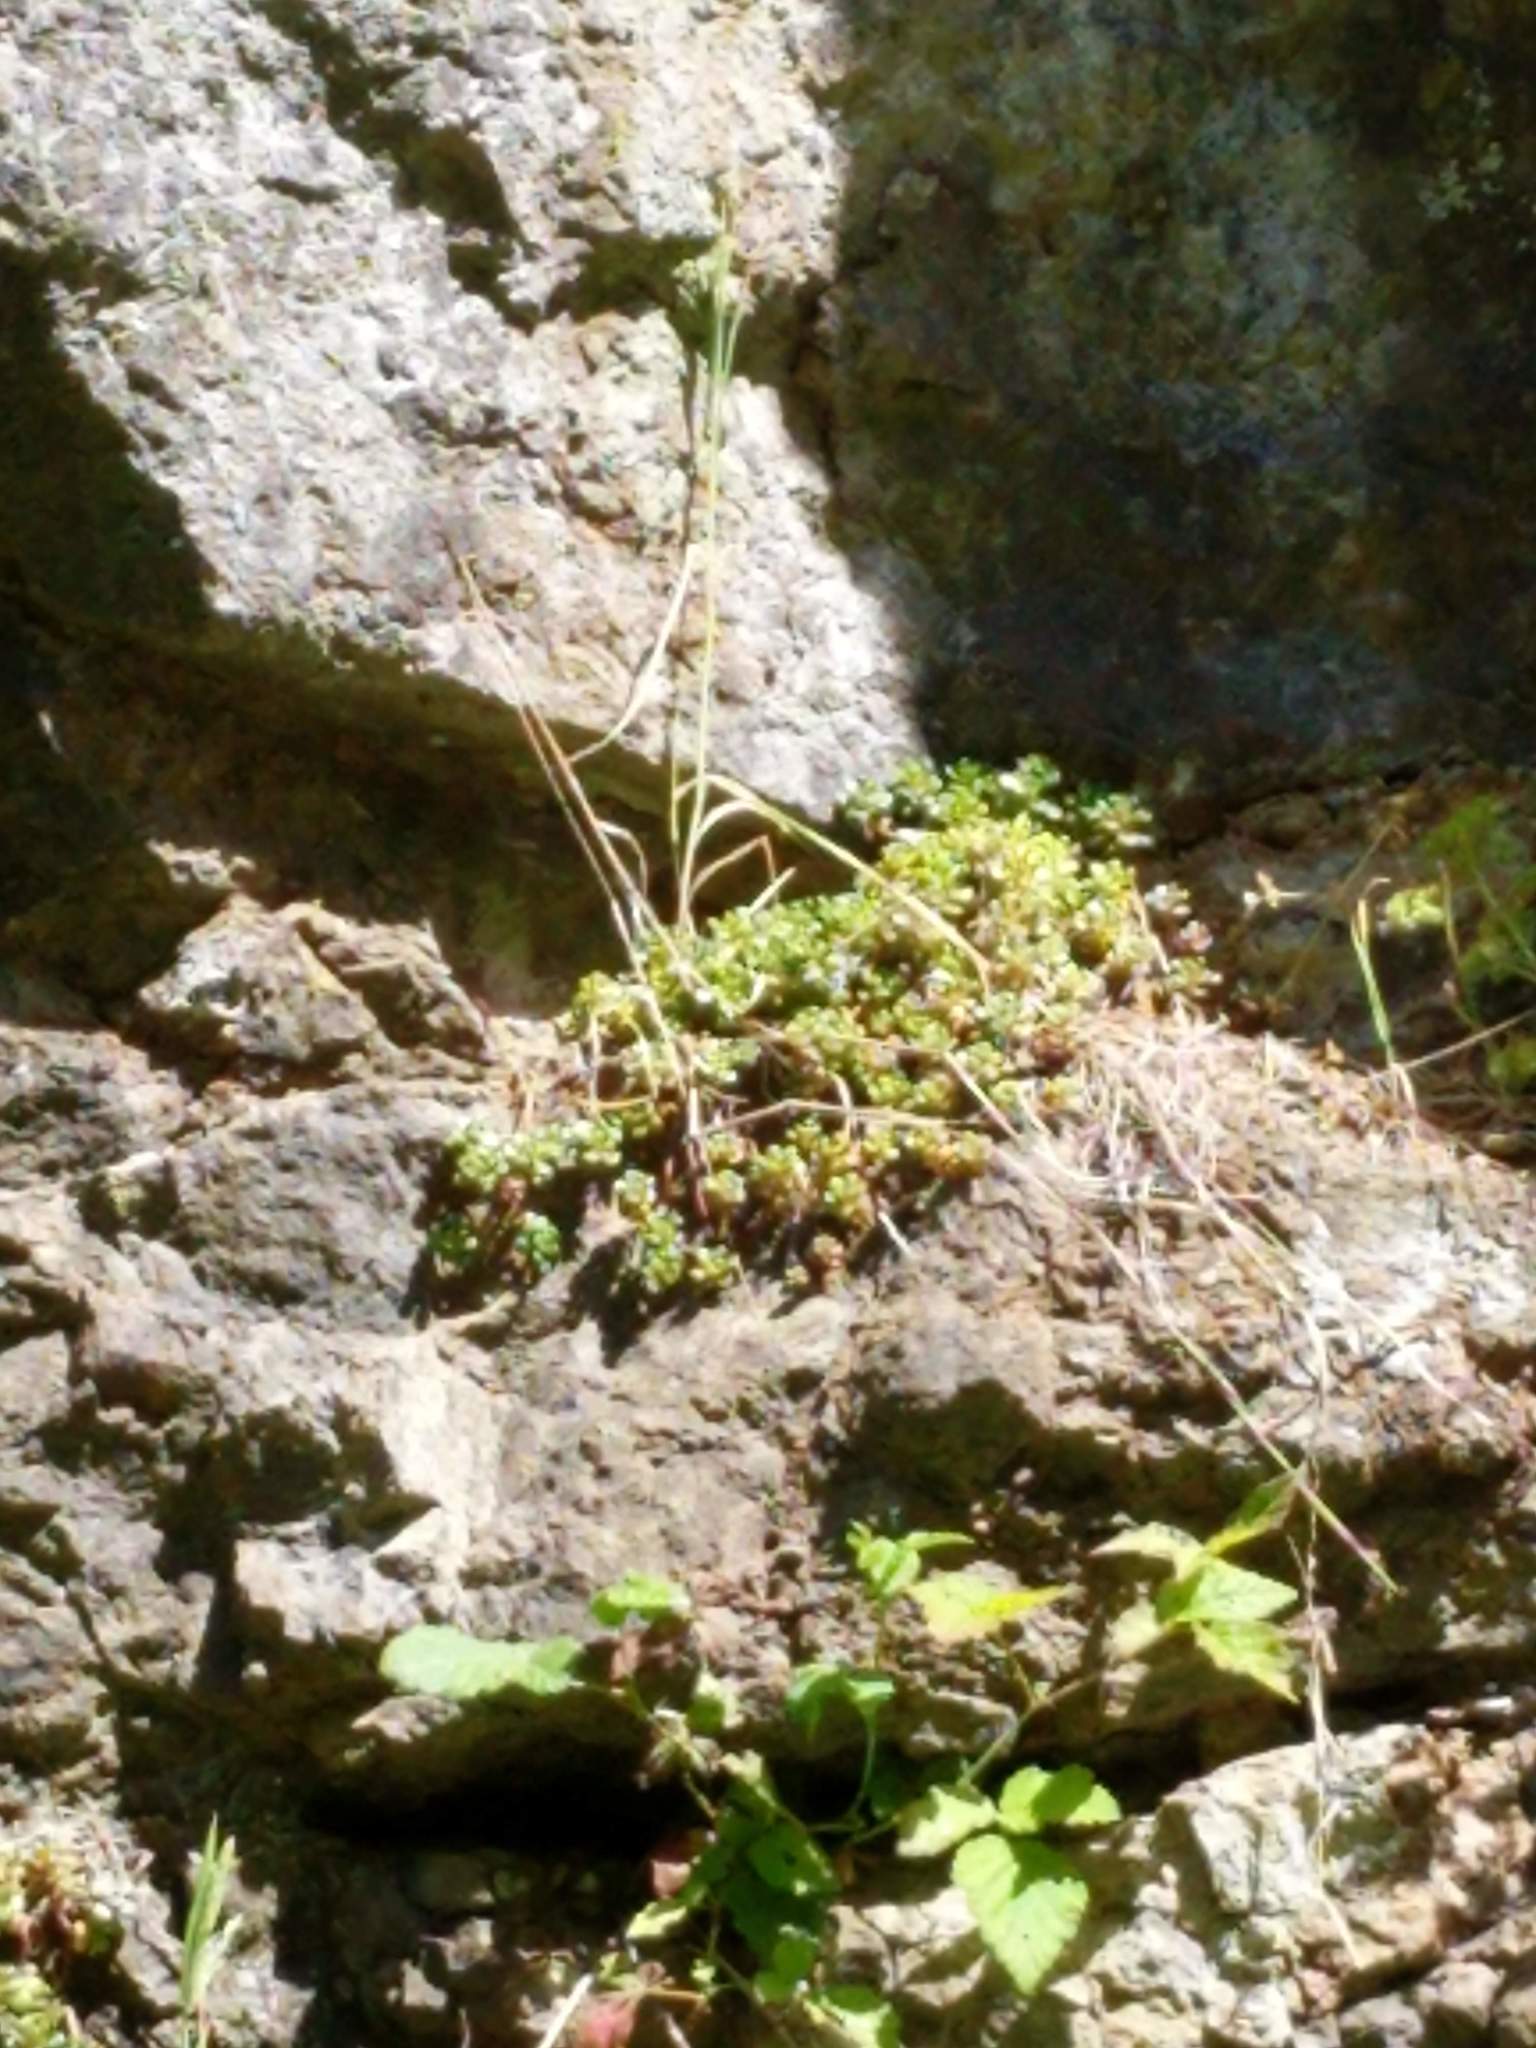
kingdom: Plantae
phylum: Tracheophyta
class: Magnoliopsida
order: Saxifragales
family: Crassulaceae
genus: Sedum
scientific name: Sedum oreganum
